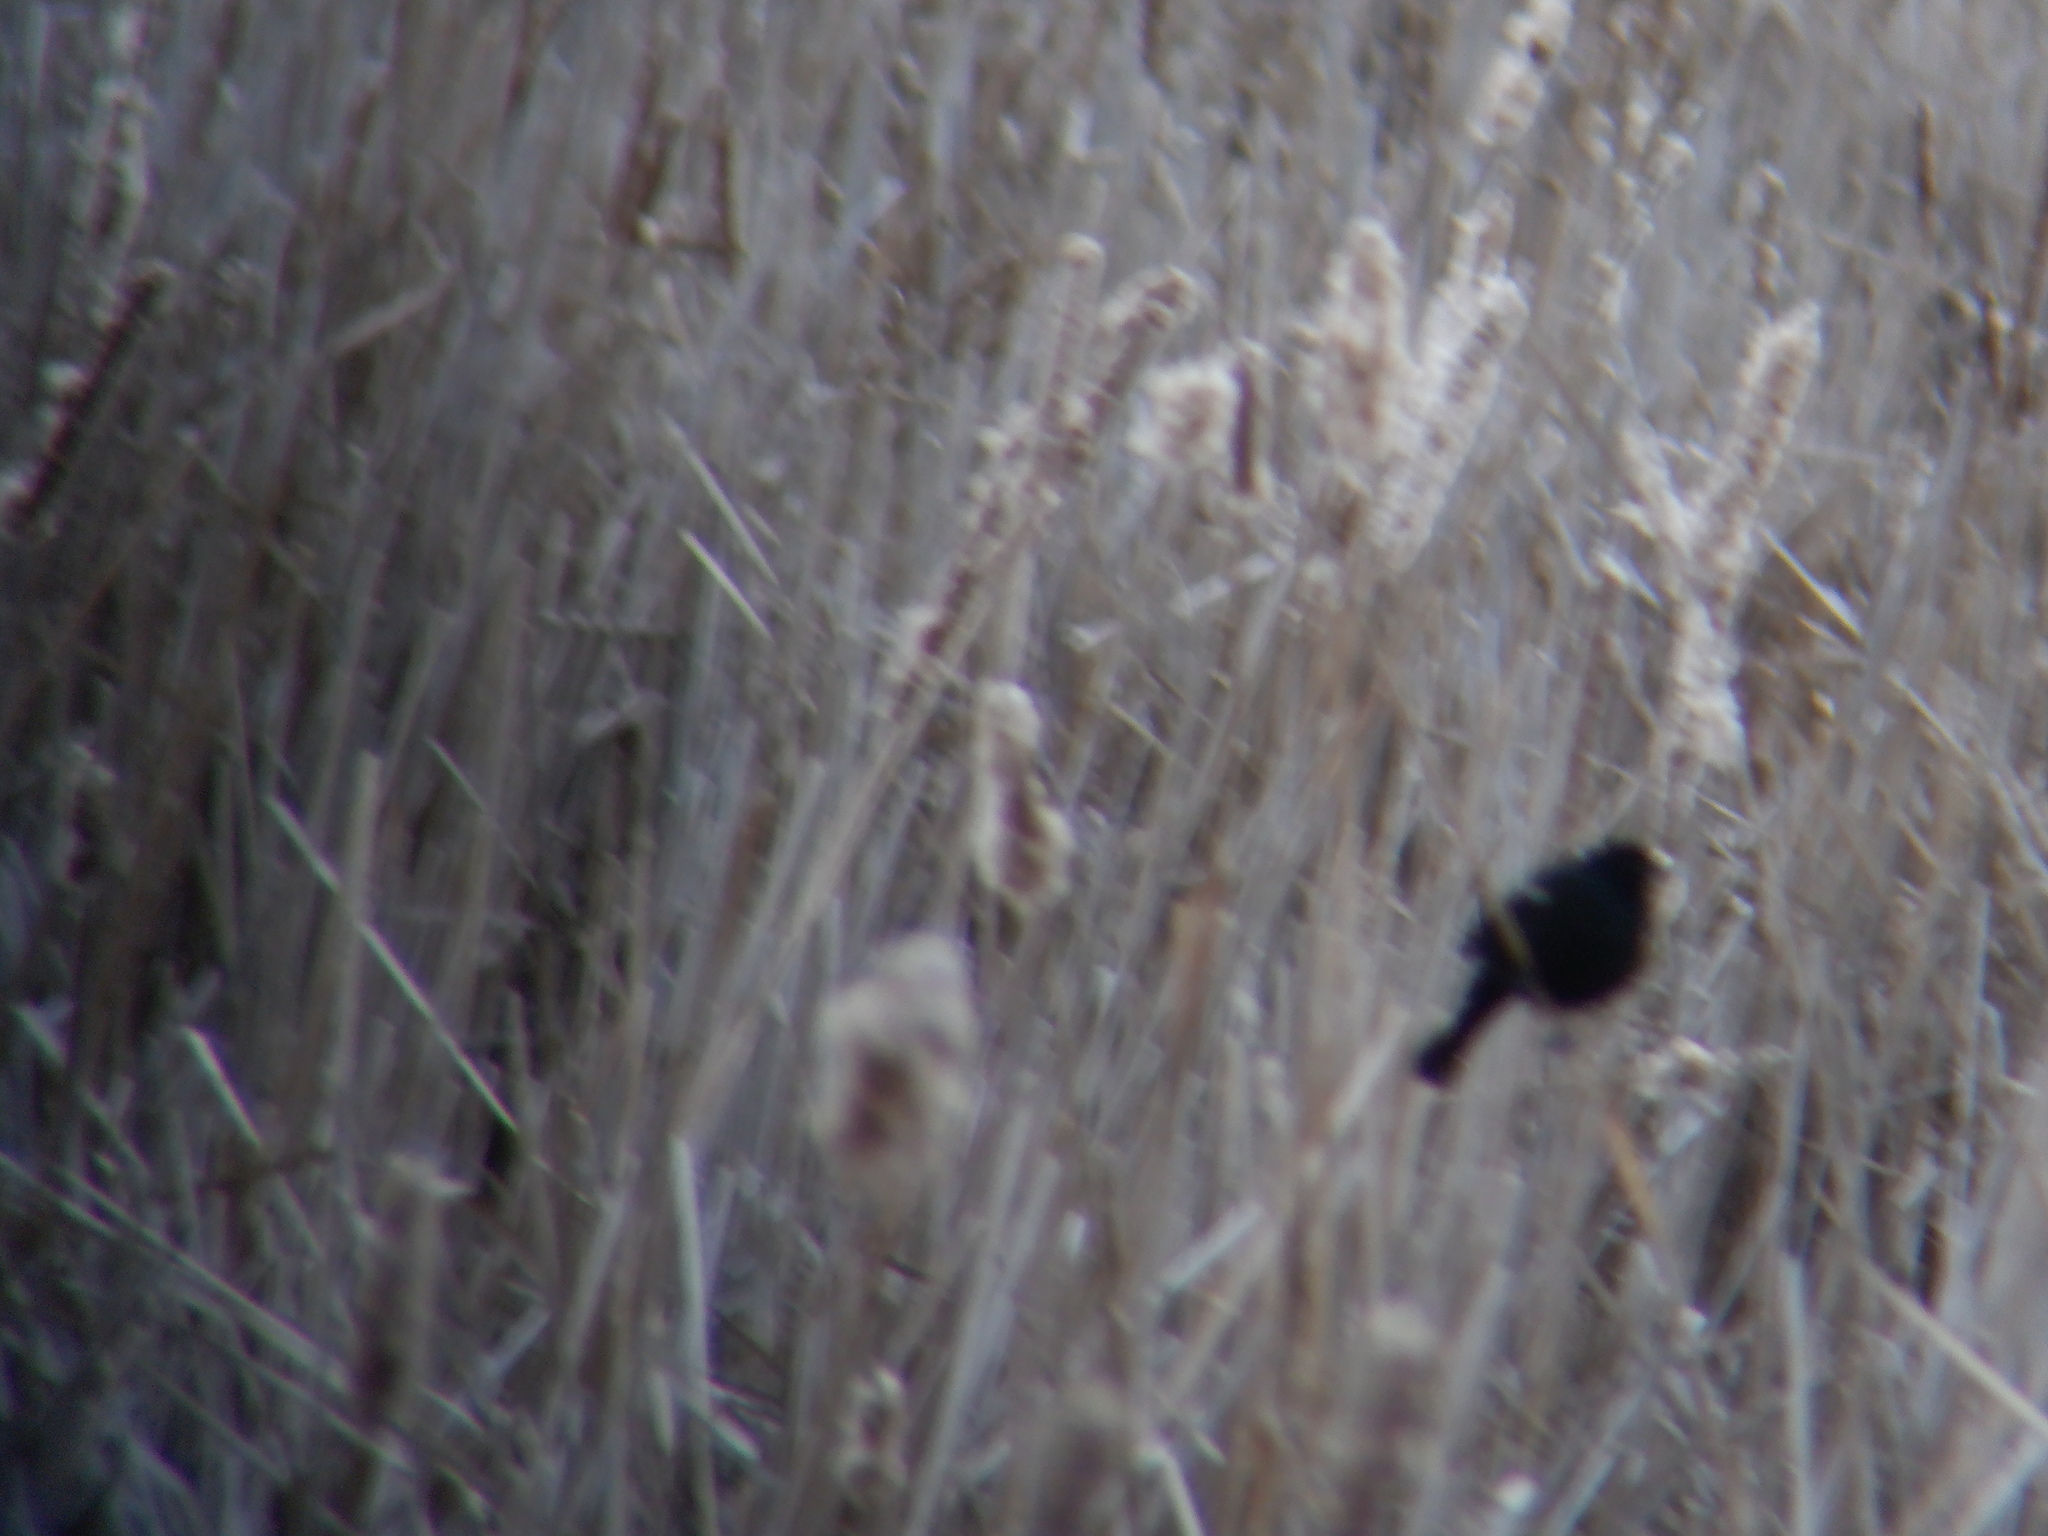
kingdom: Animalia
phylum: Chordata
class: Aves
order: Passeriformes
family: Icteridae
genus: Agelaius
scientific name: Agelaius phoeniceus
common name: Red-winged blackbird
